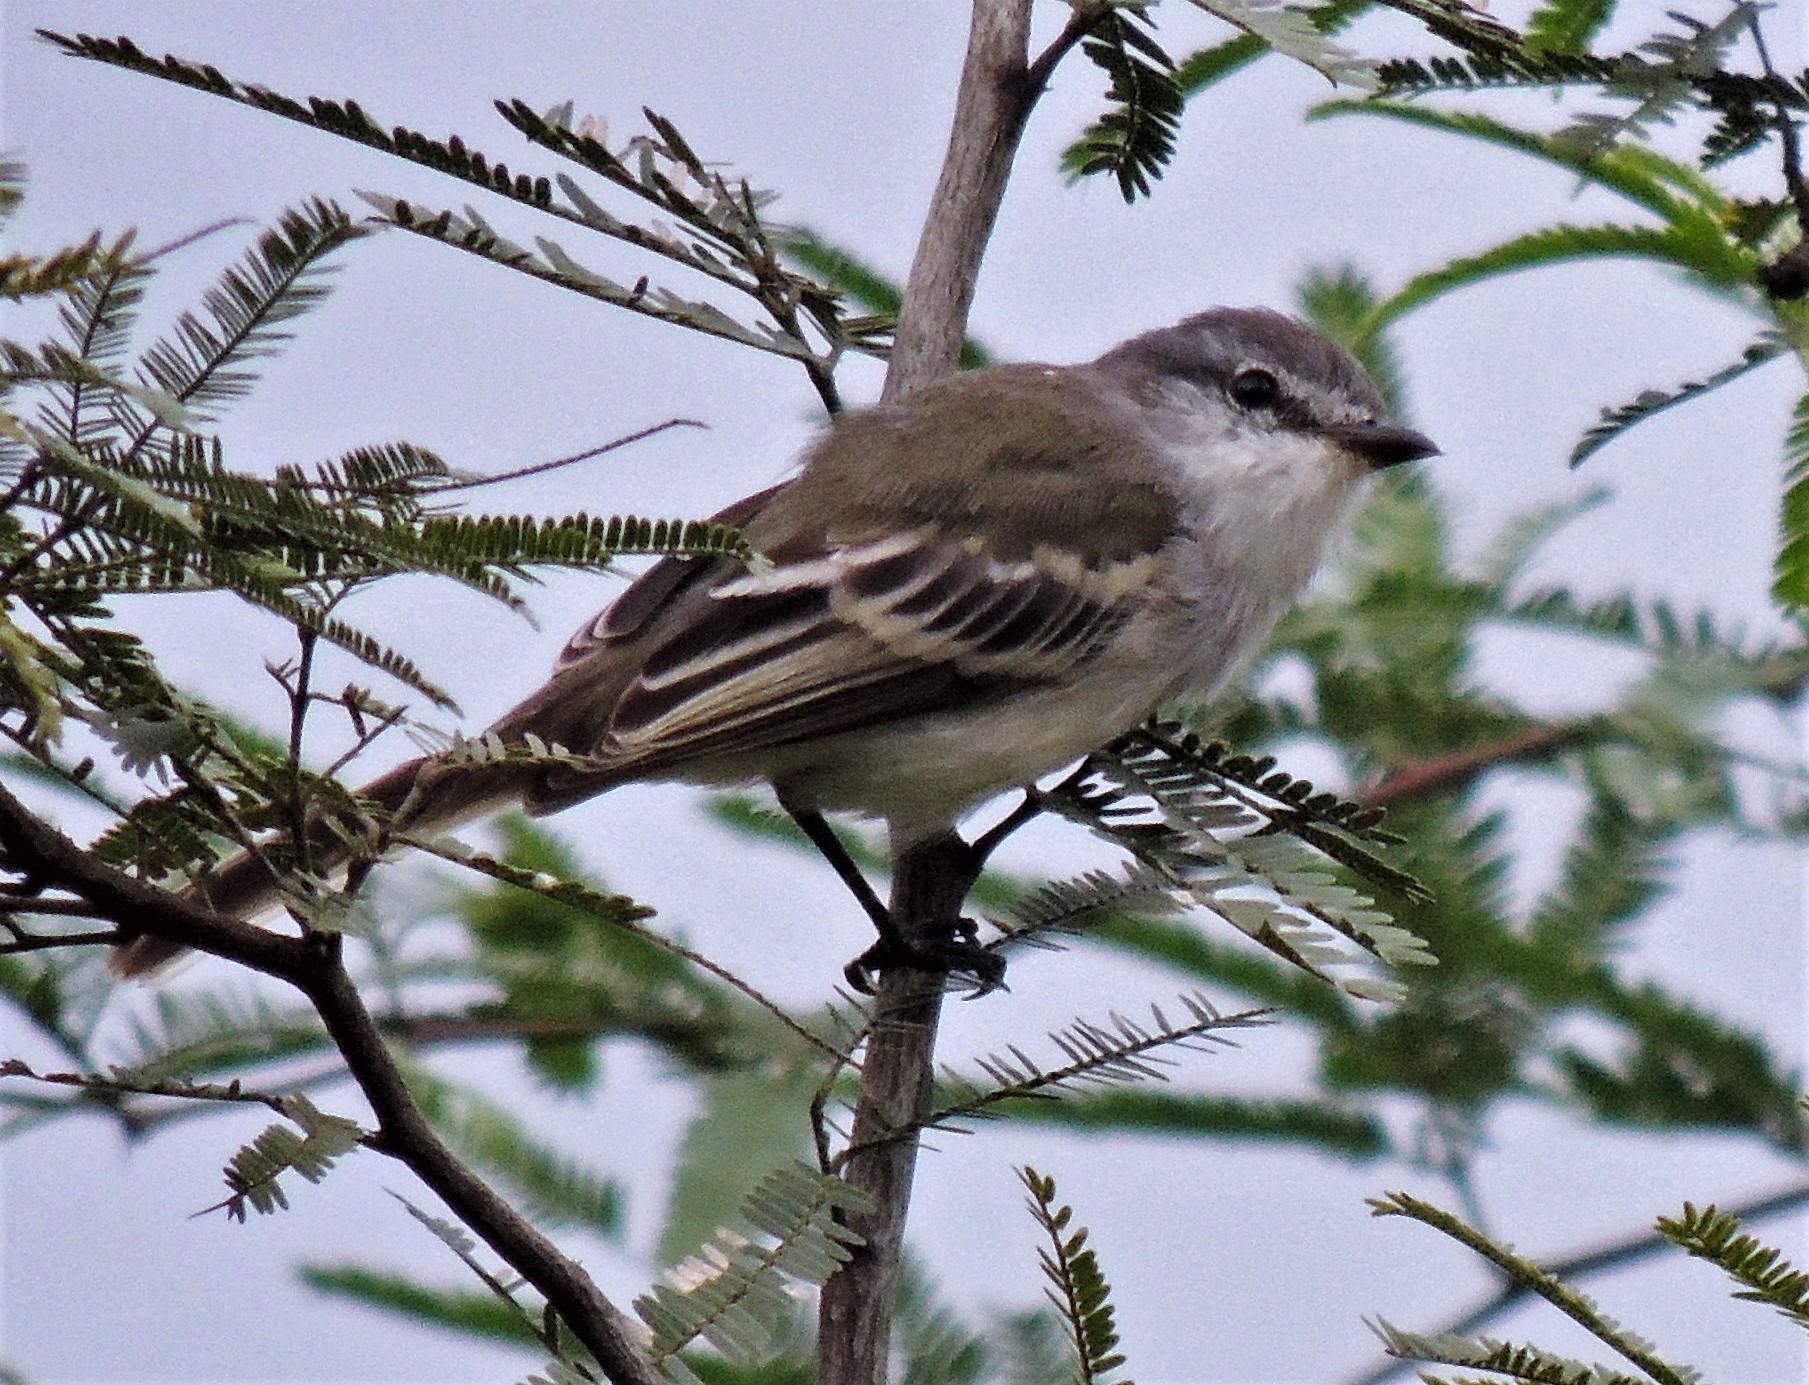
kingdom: Animalia
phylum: Chordata
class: Aves
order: Passeriformes
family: Tyrannidae
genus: Suiriri
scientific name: Suiriri suiriri
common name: Suiriri flycatcher
